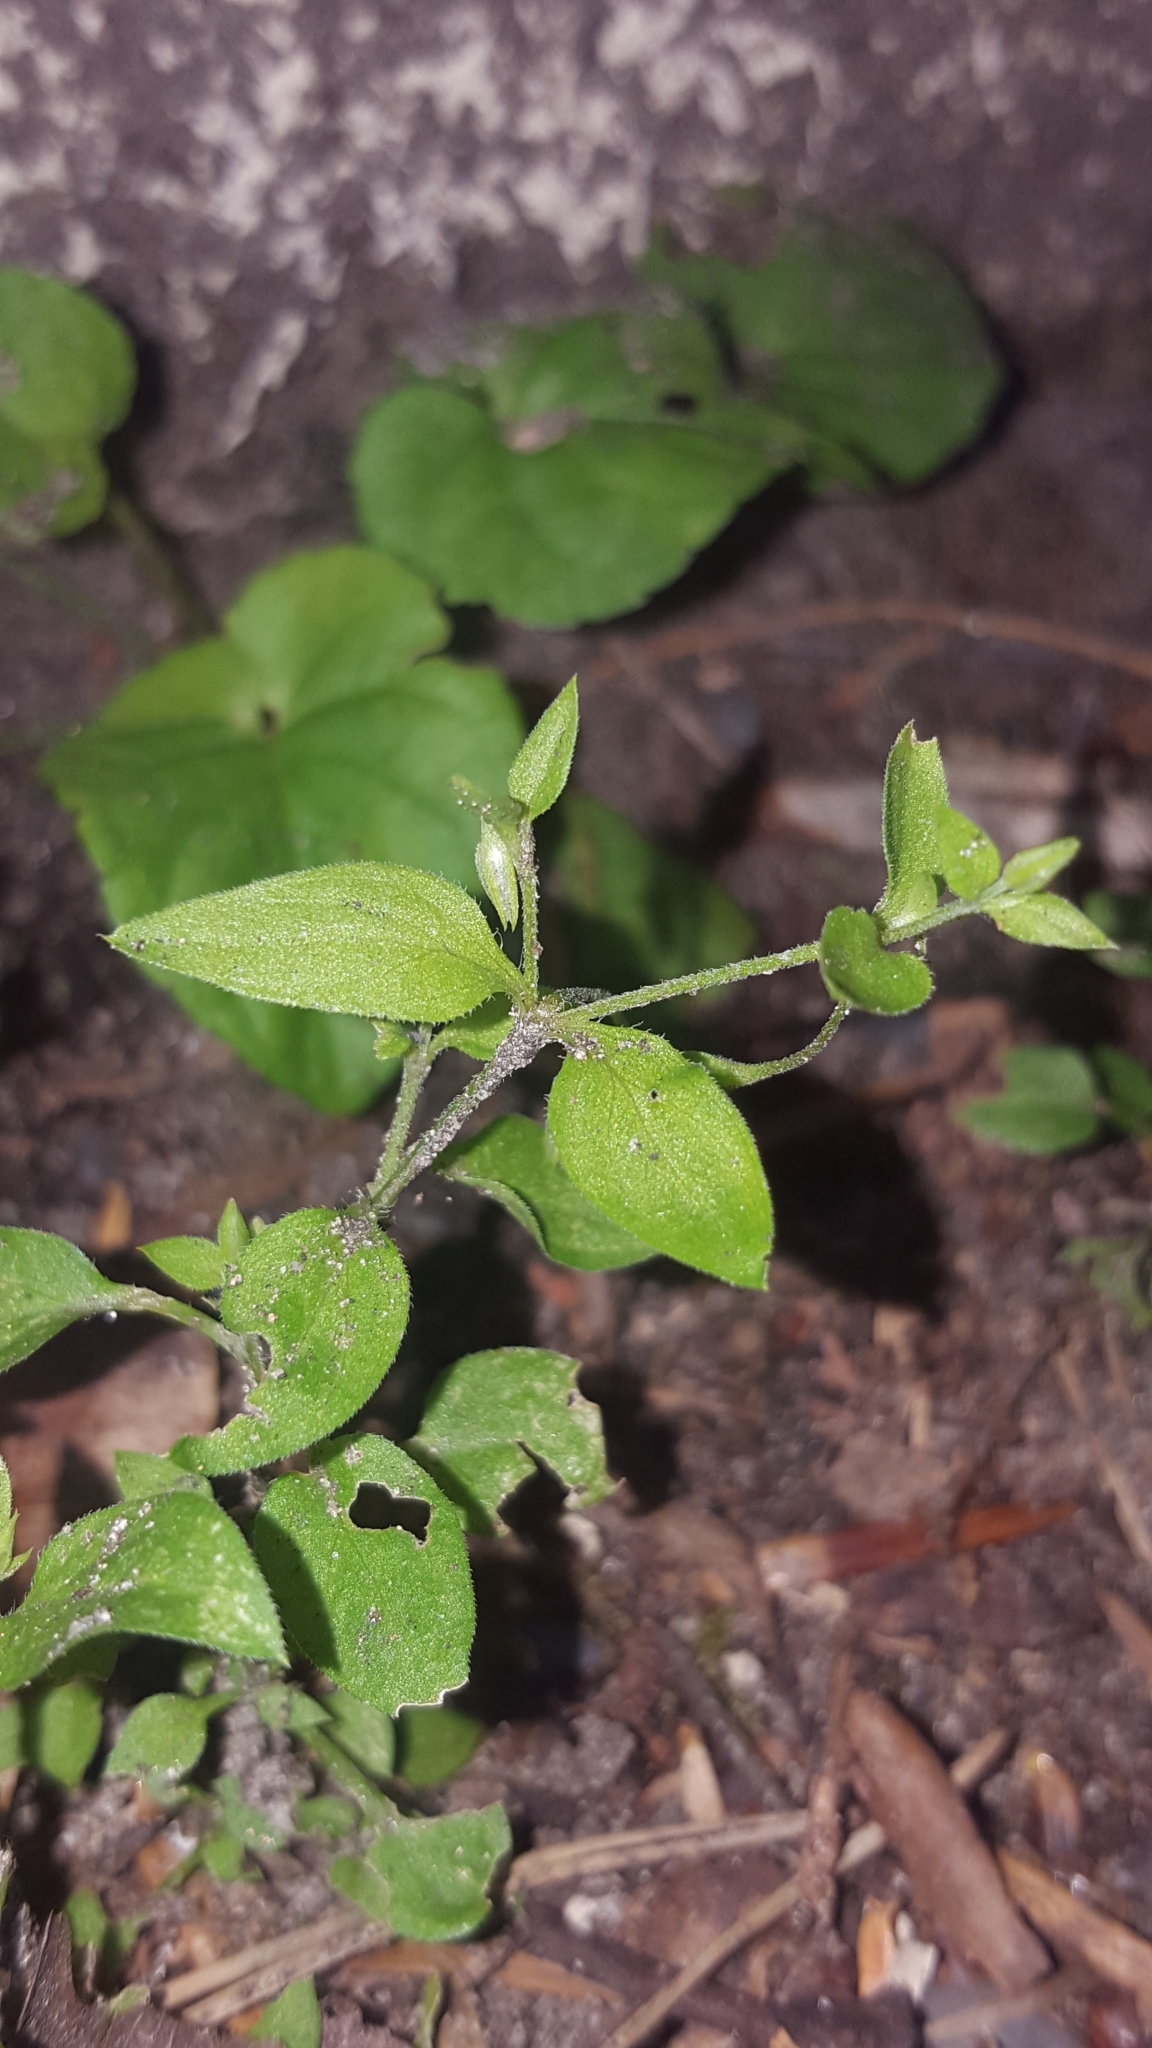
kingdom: Plantae
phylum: Tracheophyta
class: Magnoliopsida
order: Caryophyllales
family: Caryophyllaceae
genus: Moehringia
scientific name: Moehringia trinervia
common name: Three-nerved sandwort
